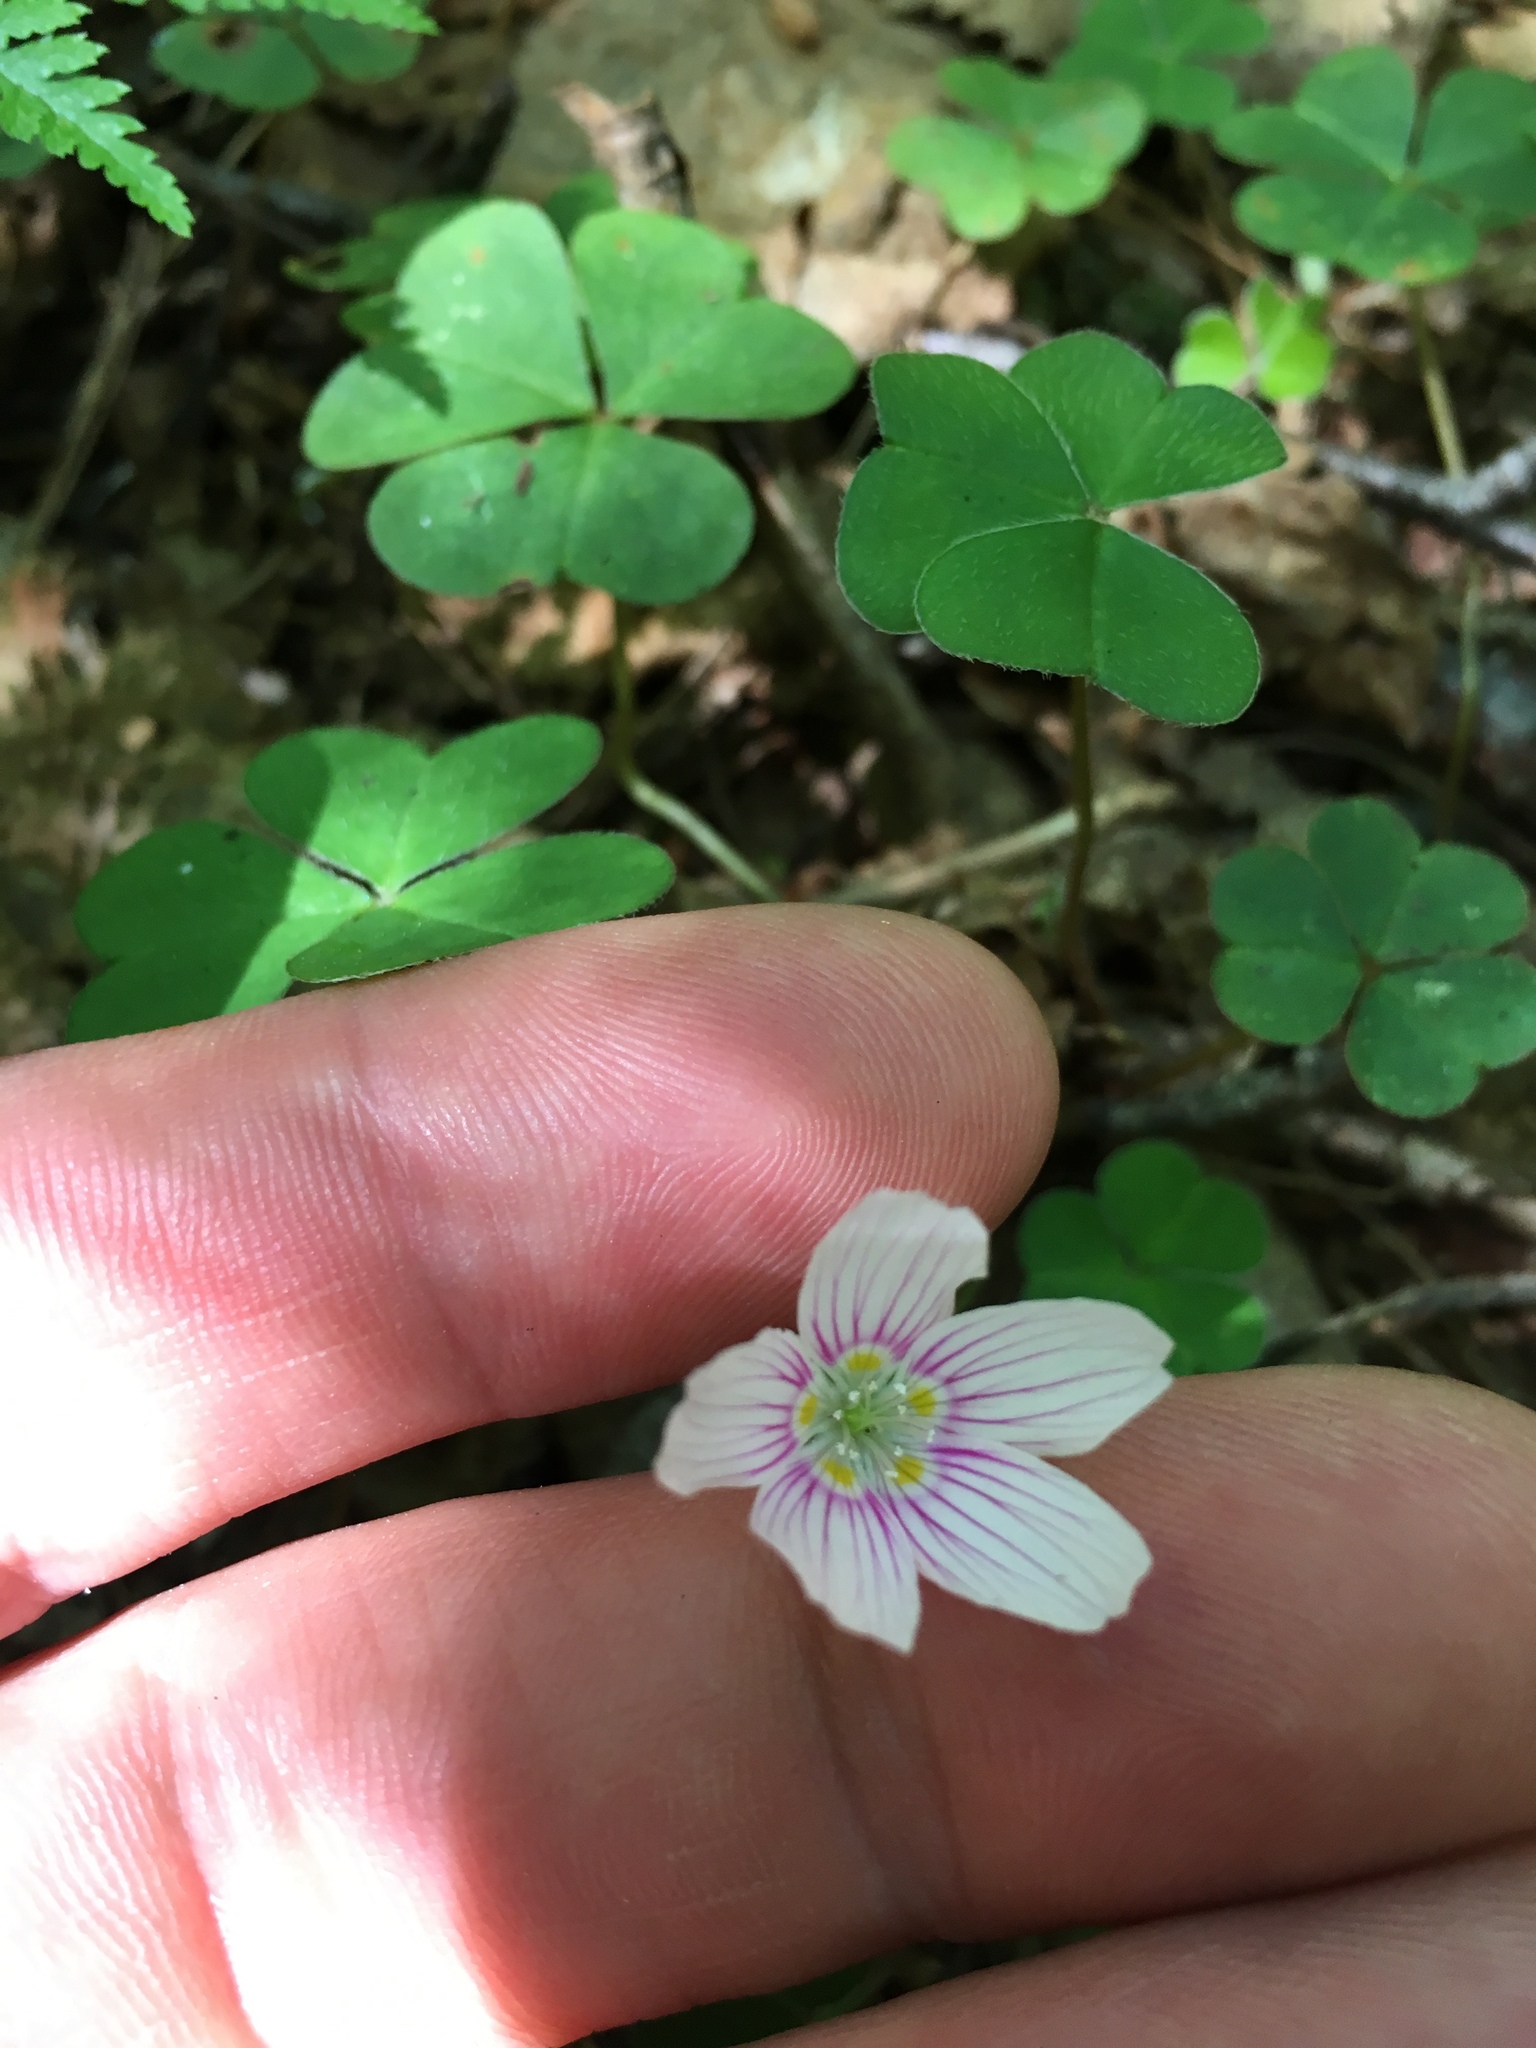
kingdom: Plantae
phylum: Tracheophyta
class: Magnoliopsida
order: Oxalidales
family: Oxalidaceae
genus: Oxalis
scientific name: Oxalis montana
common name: American wood-sorrel
